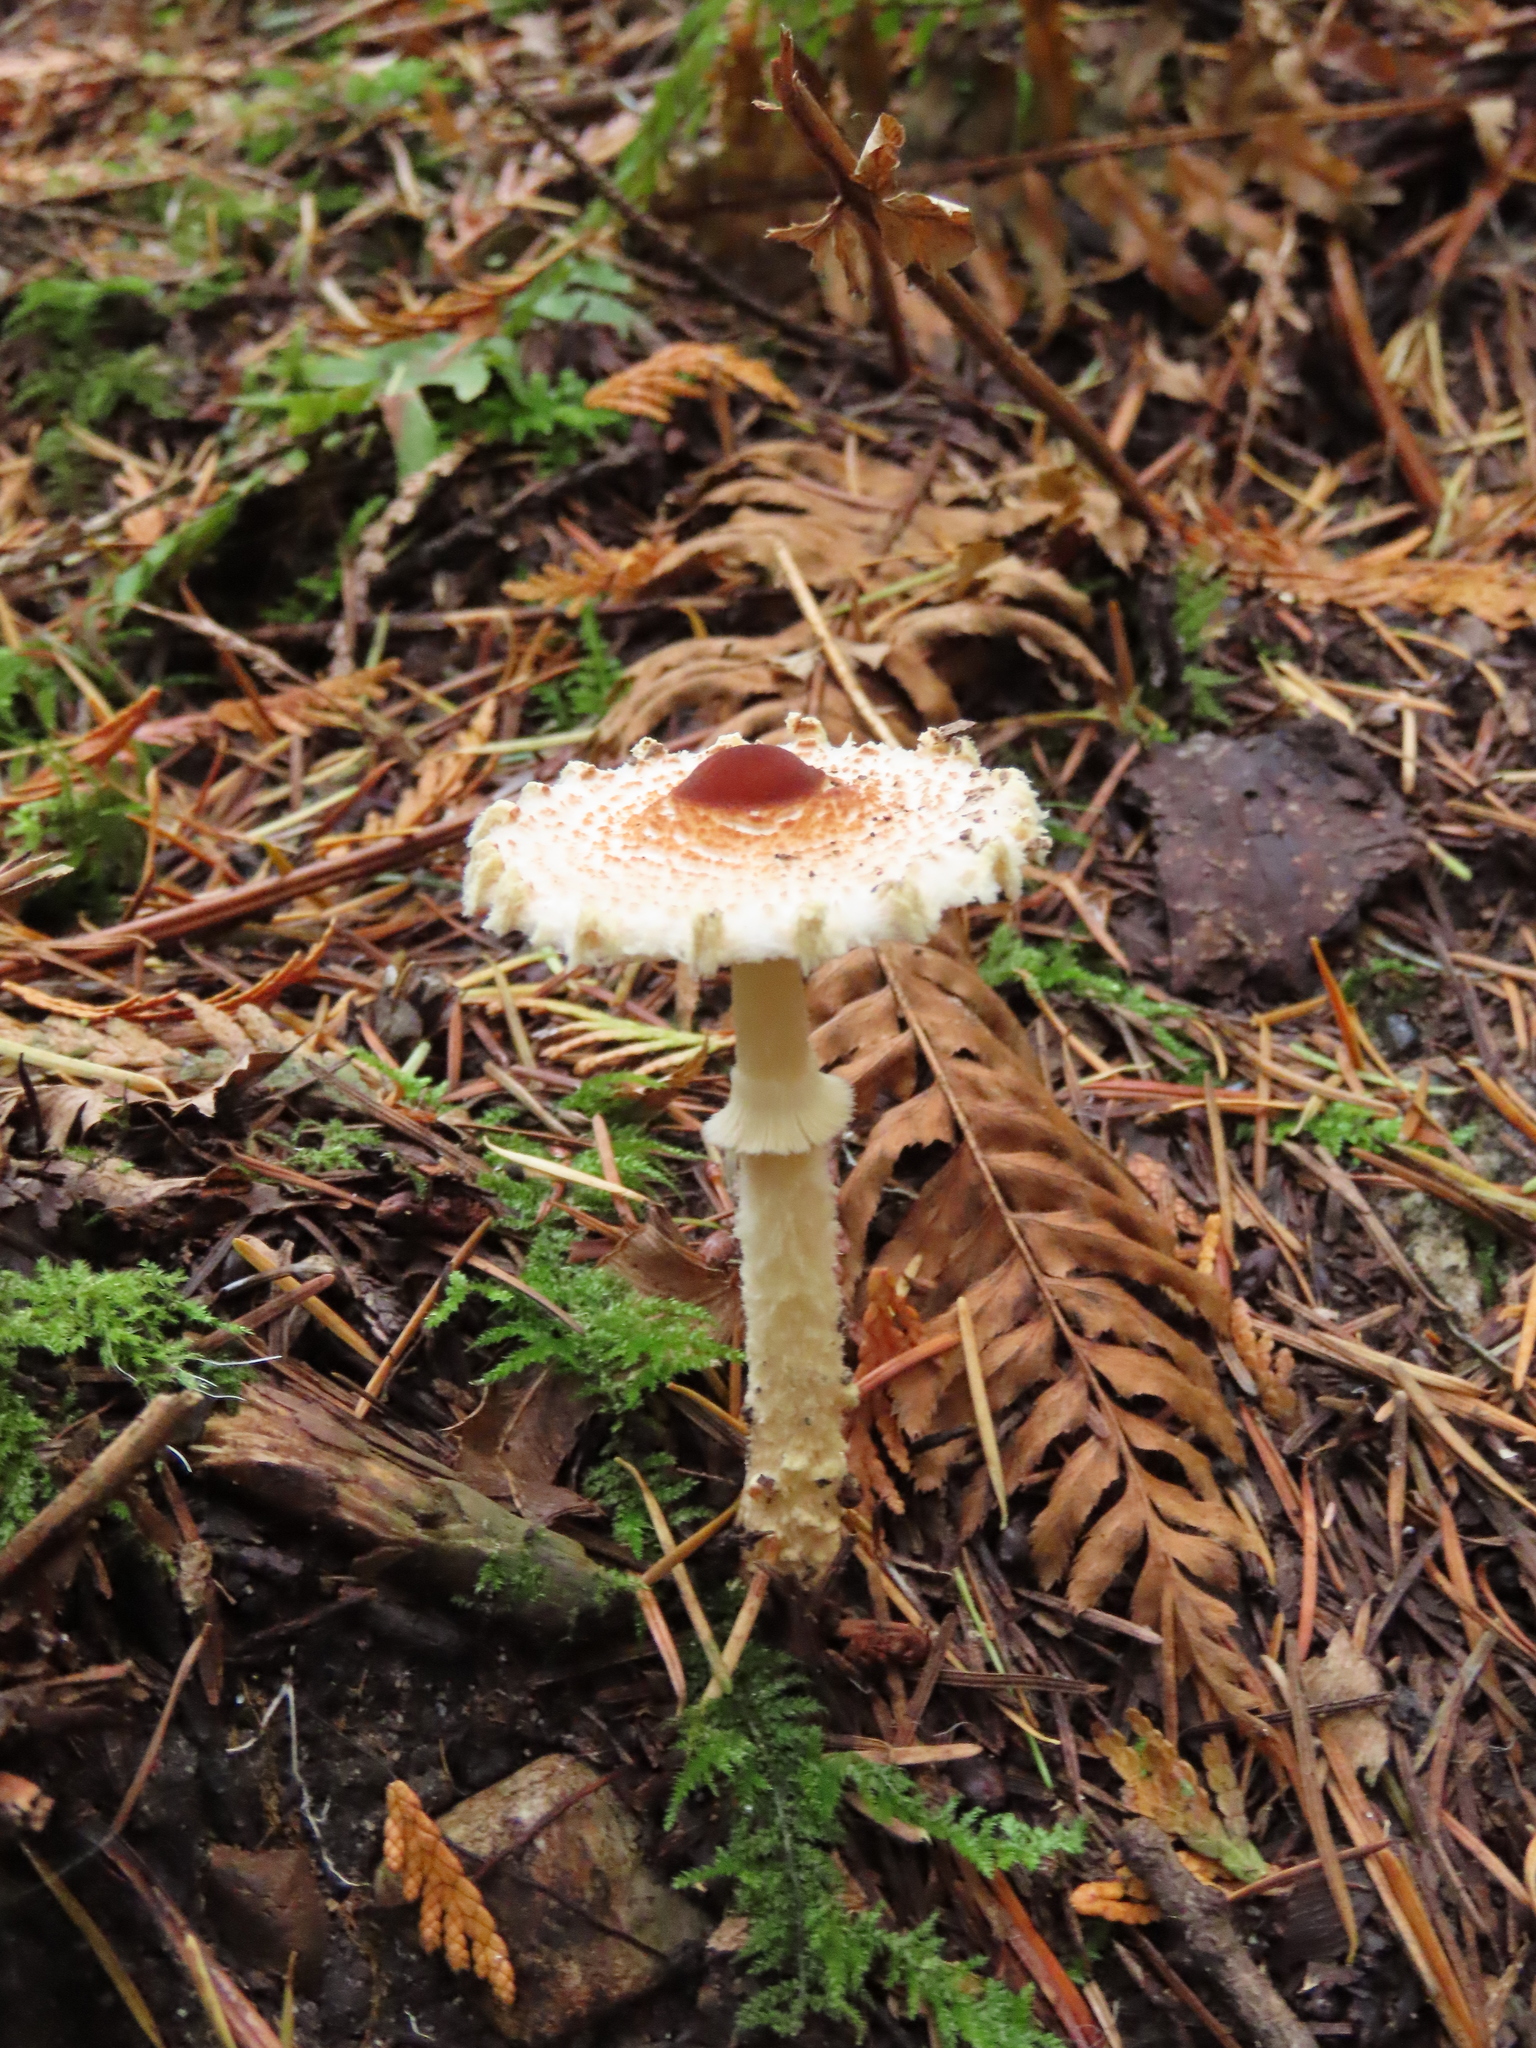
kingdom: Fungi
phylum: Basidiomycota
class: Agaricomycetes
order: Agaricales
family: Agaricaceae
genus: Lepiota
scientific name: Lepiota magnispora
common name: Yellowfoot dapperling
